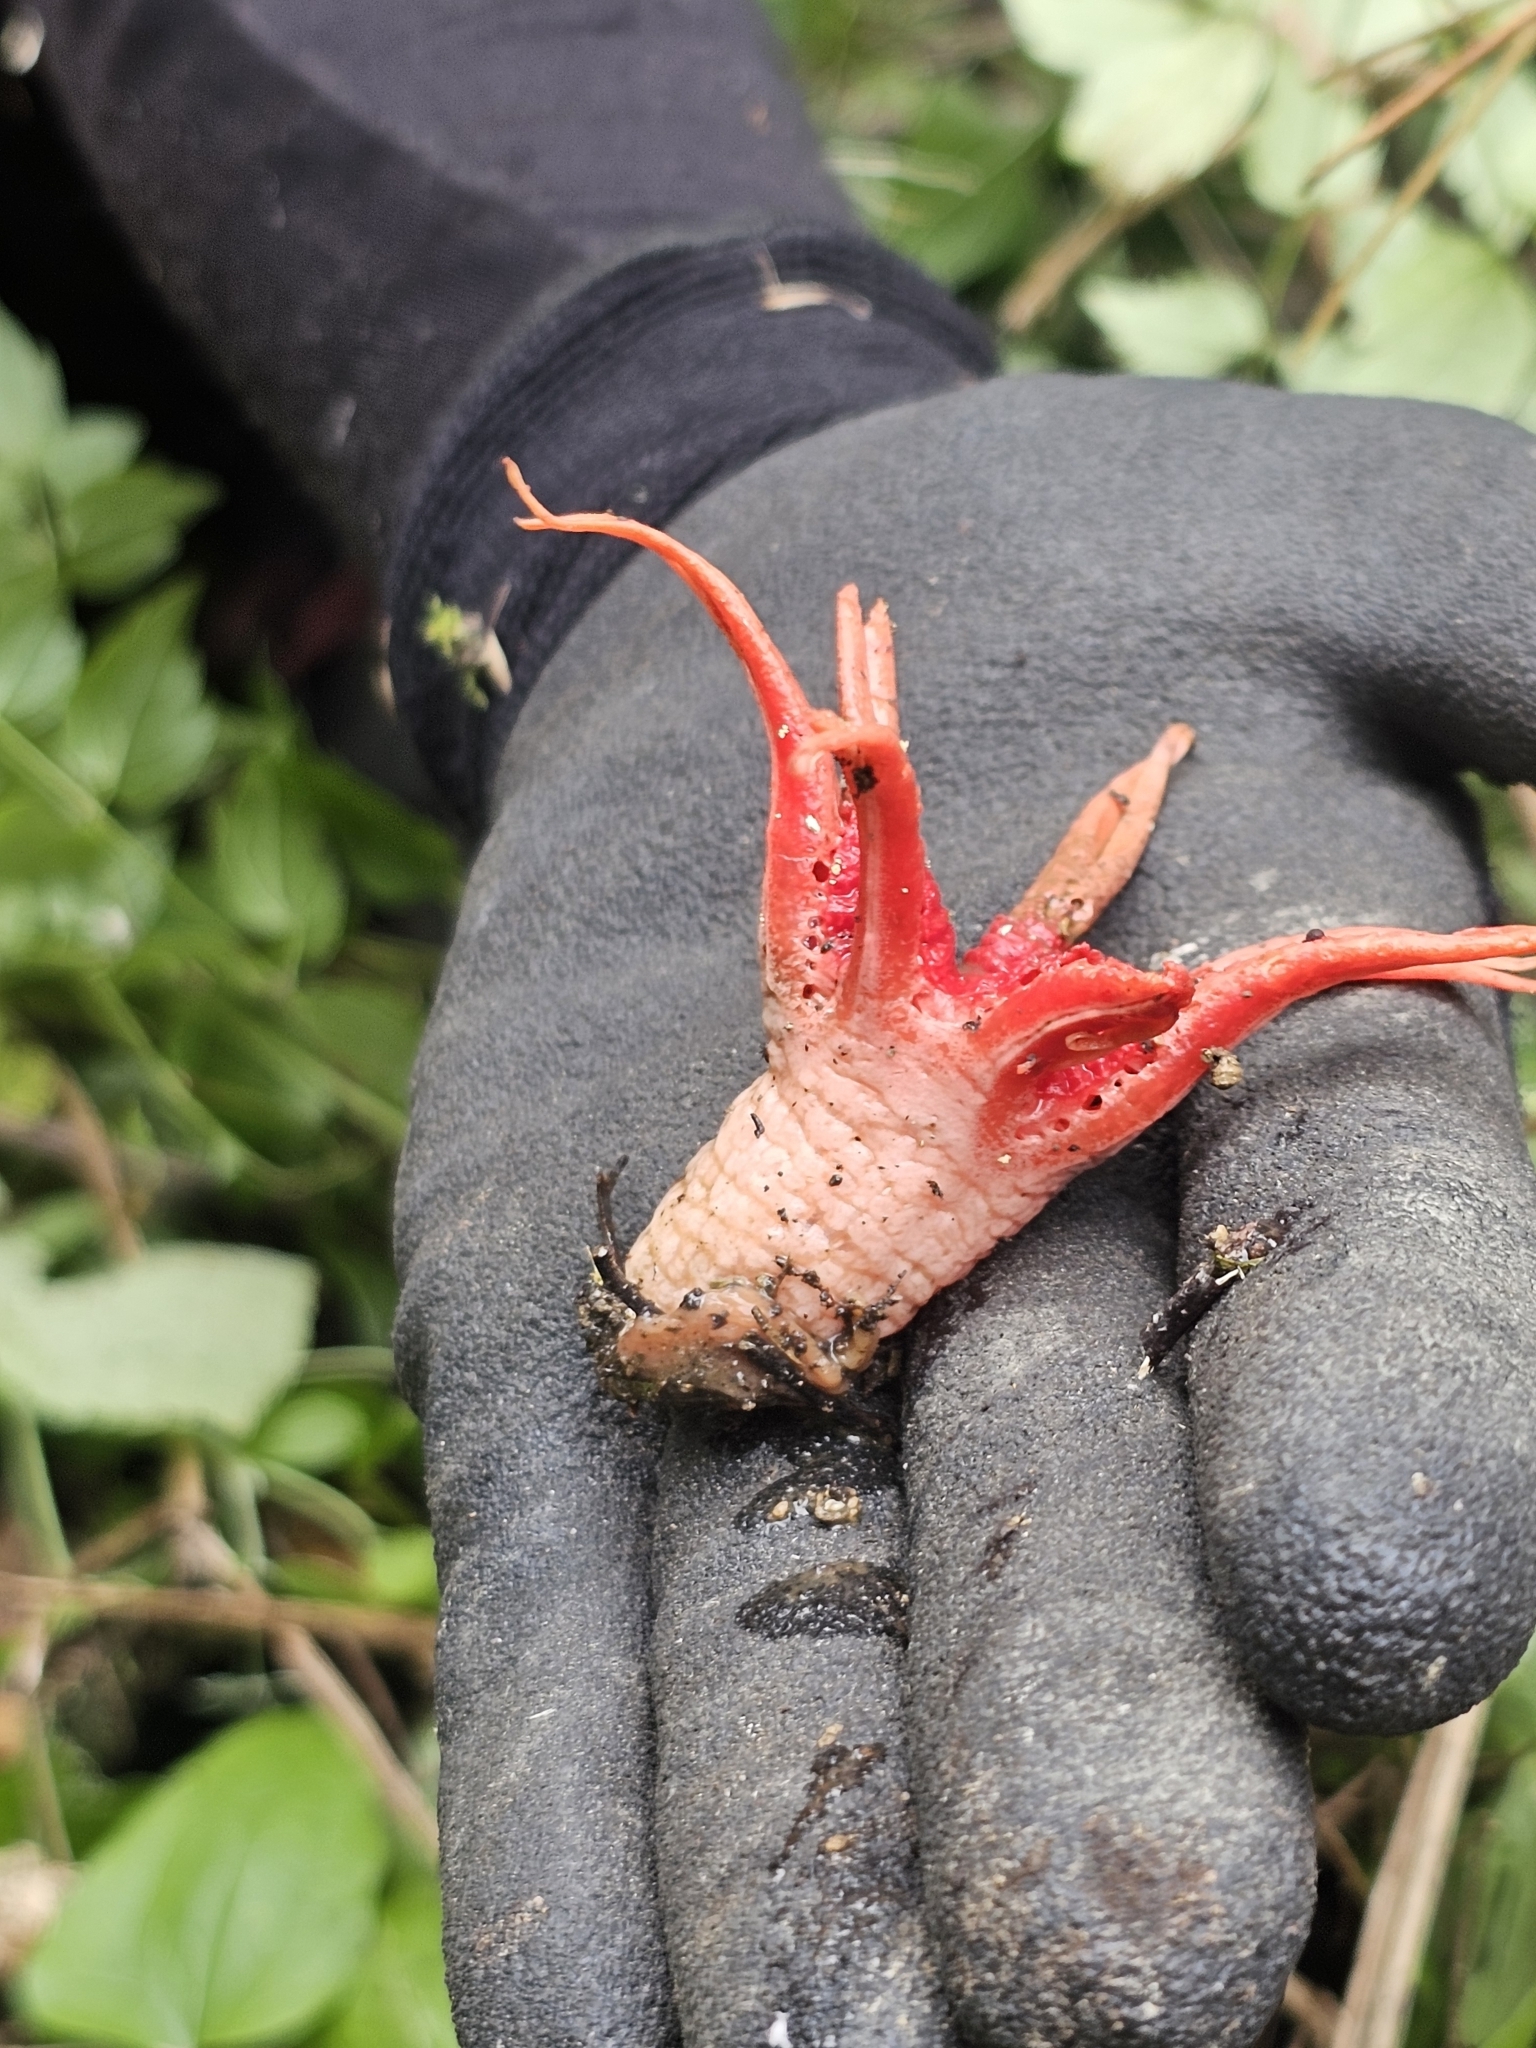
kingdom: Fungi
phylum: Basidiomycota
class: Agaricomycetes
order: Phallales
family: Phallaceae
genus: Aseroe
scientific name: Aseroe rubra
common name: Starfish fungus
